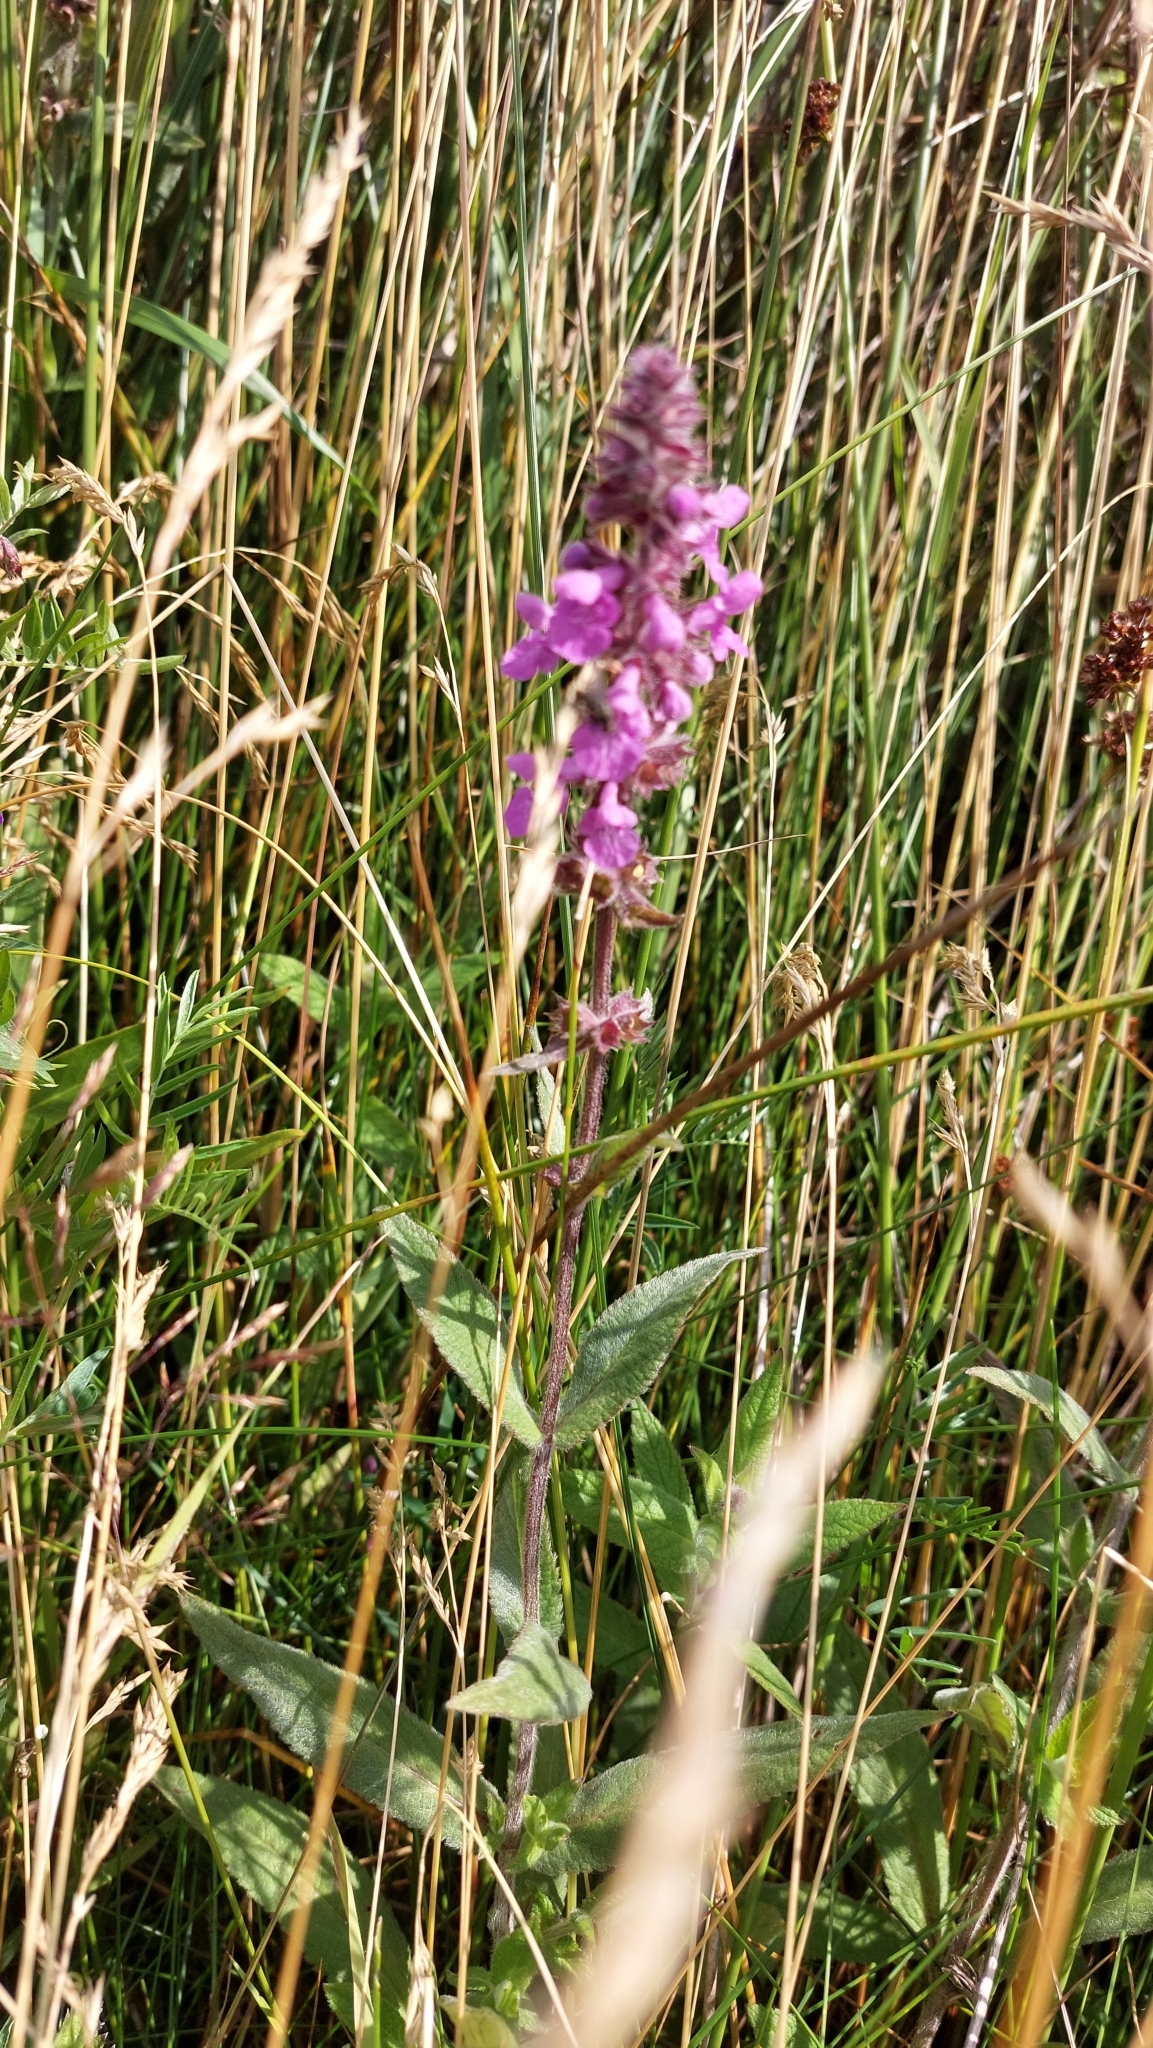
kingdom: Plantae
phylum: Tracheophyta
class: Magnoliopsida
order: Lamiales
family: Lamiaceae
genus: Stachys
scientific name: Stachys palustris
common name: Marsh woundwort
